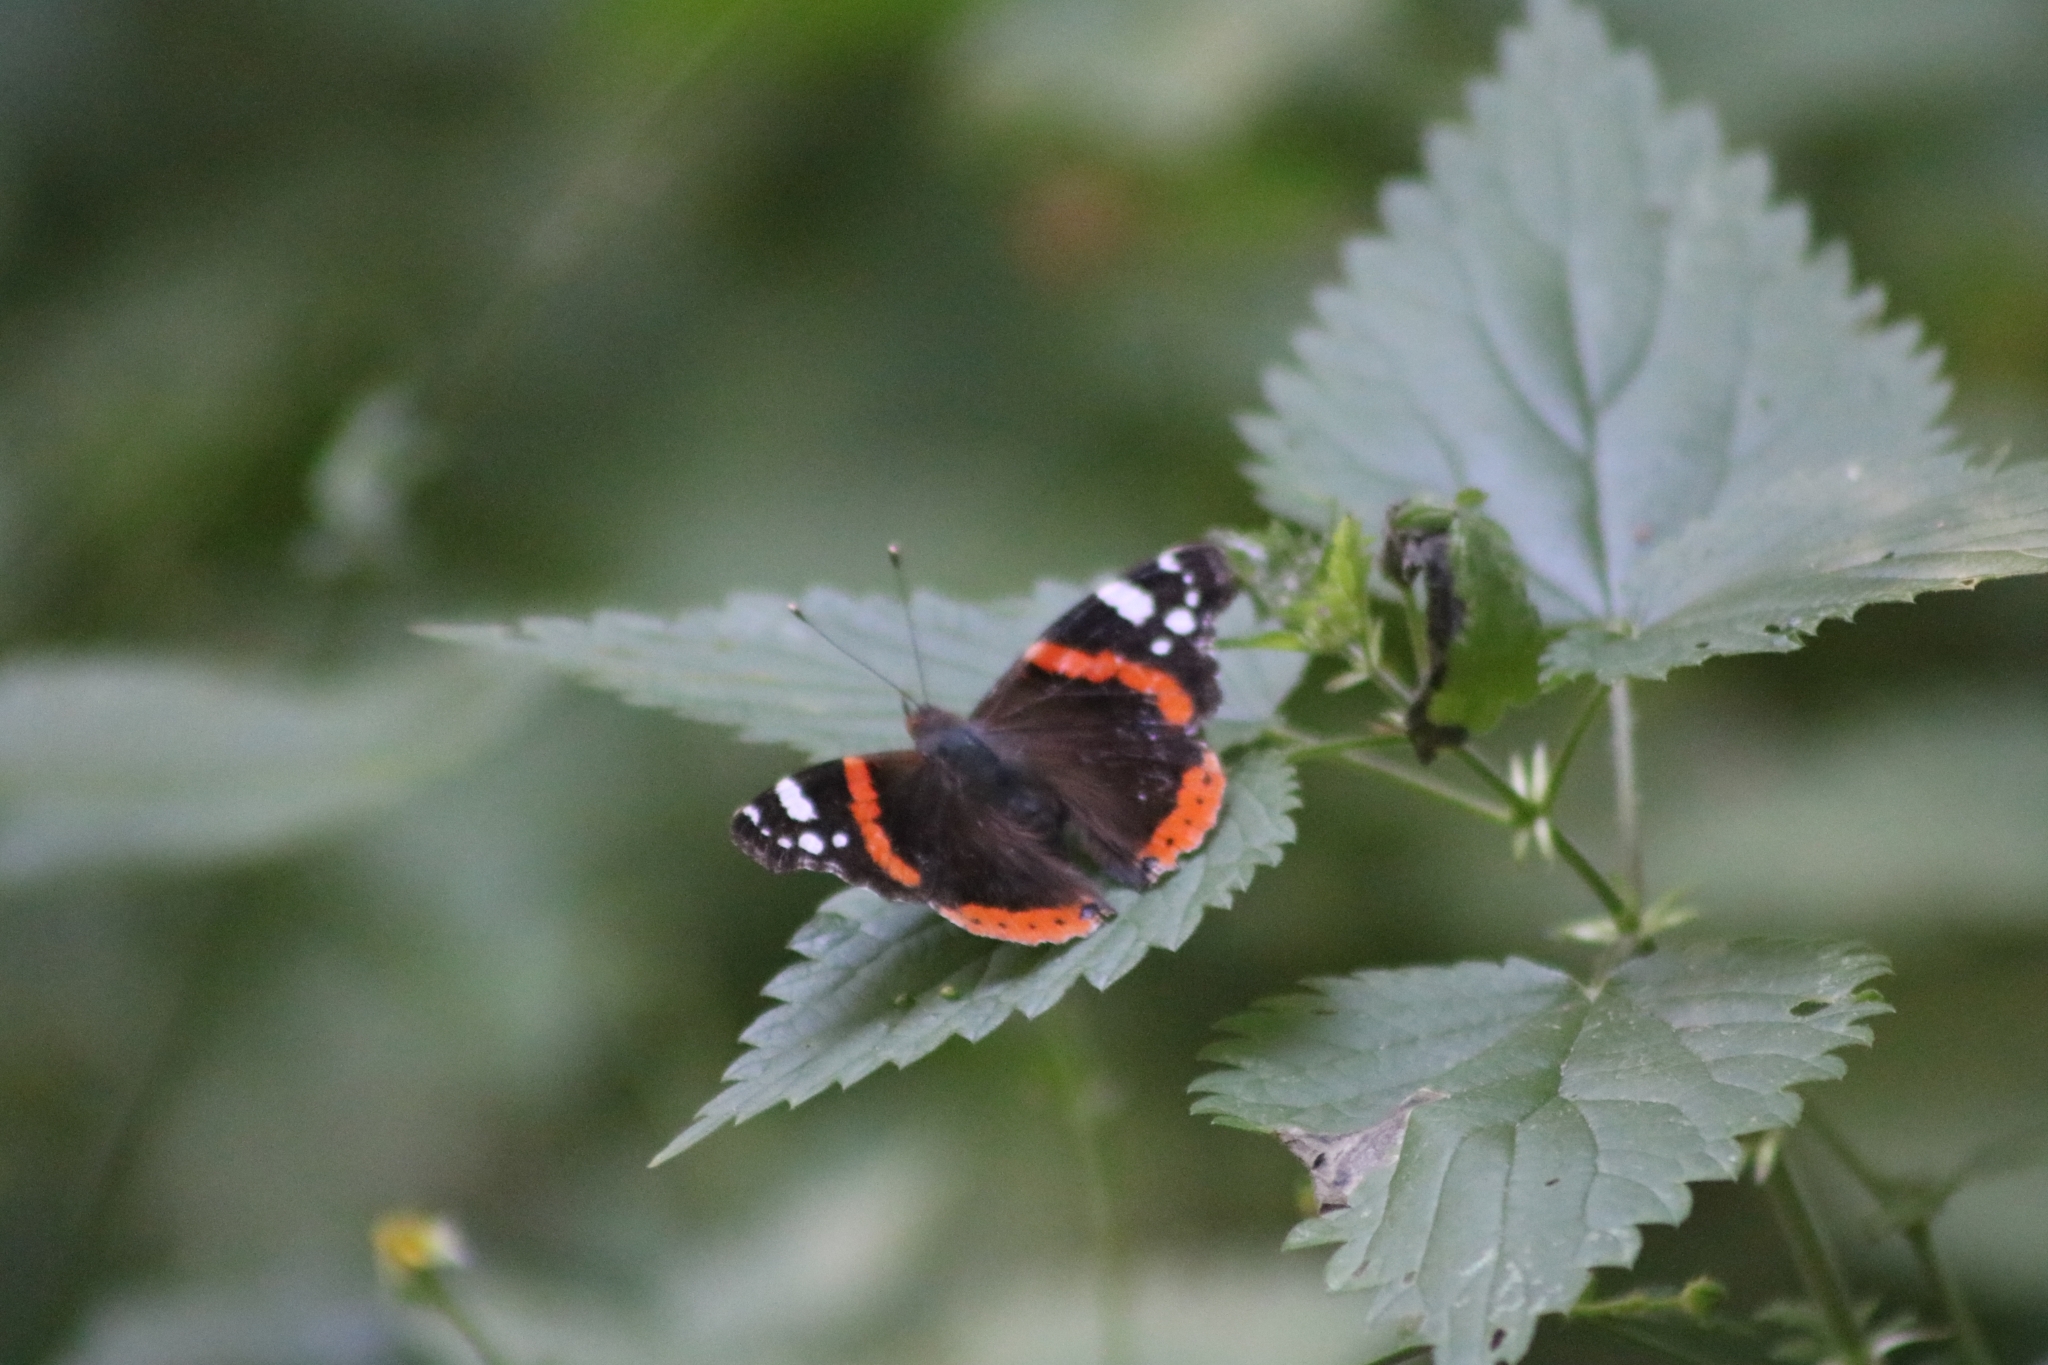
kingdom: Animalia
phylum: Arthropoda
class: Insecta
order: Lepidoptera
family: Nymphalidae
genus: Vanessa
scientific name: Vanessa atalanta
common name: Red admiral
